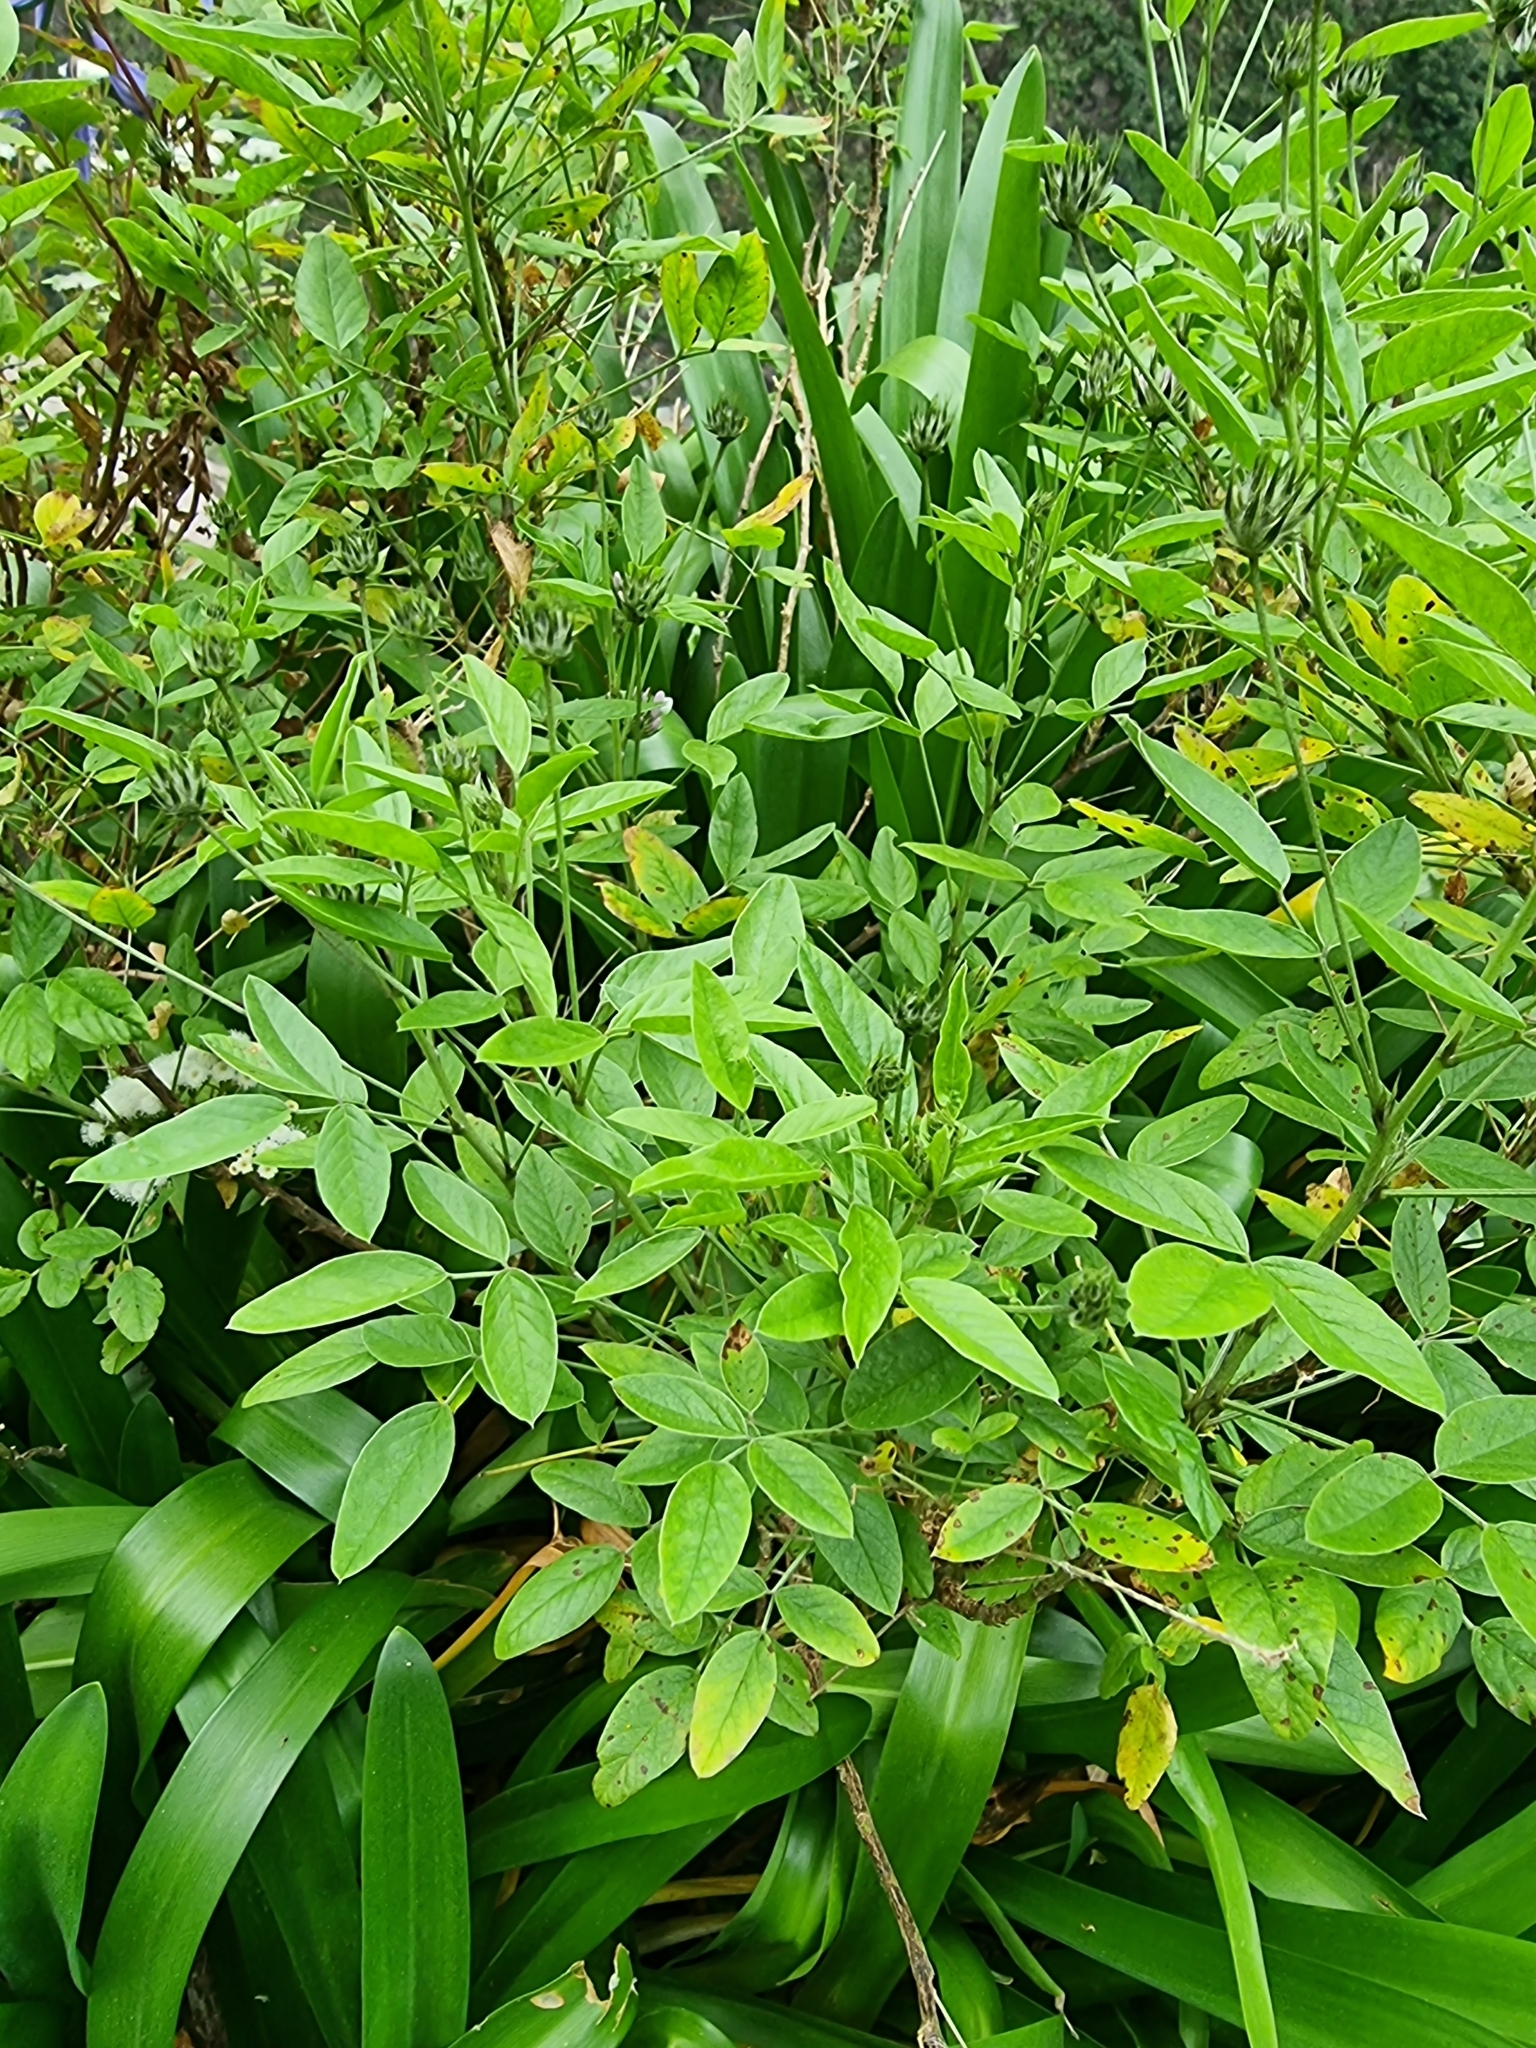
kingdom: Plantae
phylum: Tracheophyta
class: Magnoliopsida
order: Fabales
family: Fabaceae
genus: Bituminaria
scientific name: Bituminaria bituminosa
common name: Arabian pea
